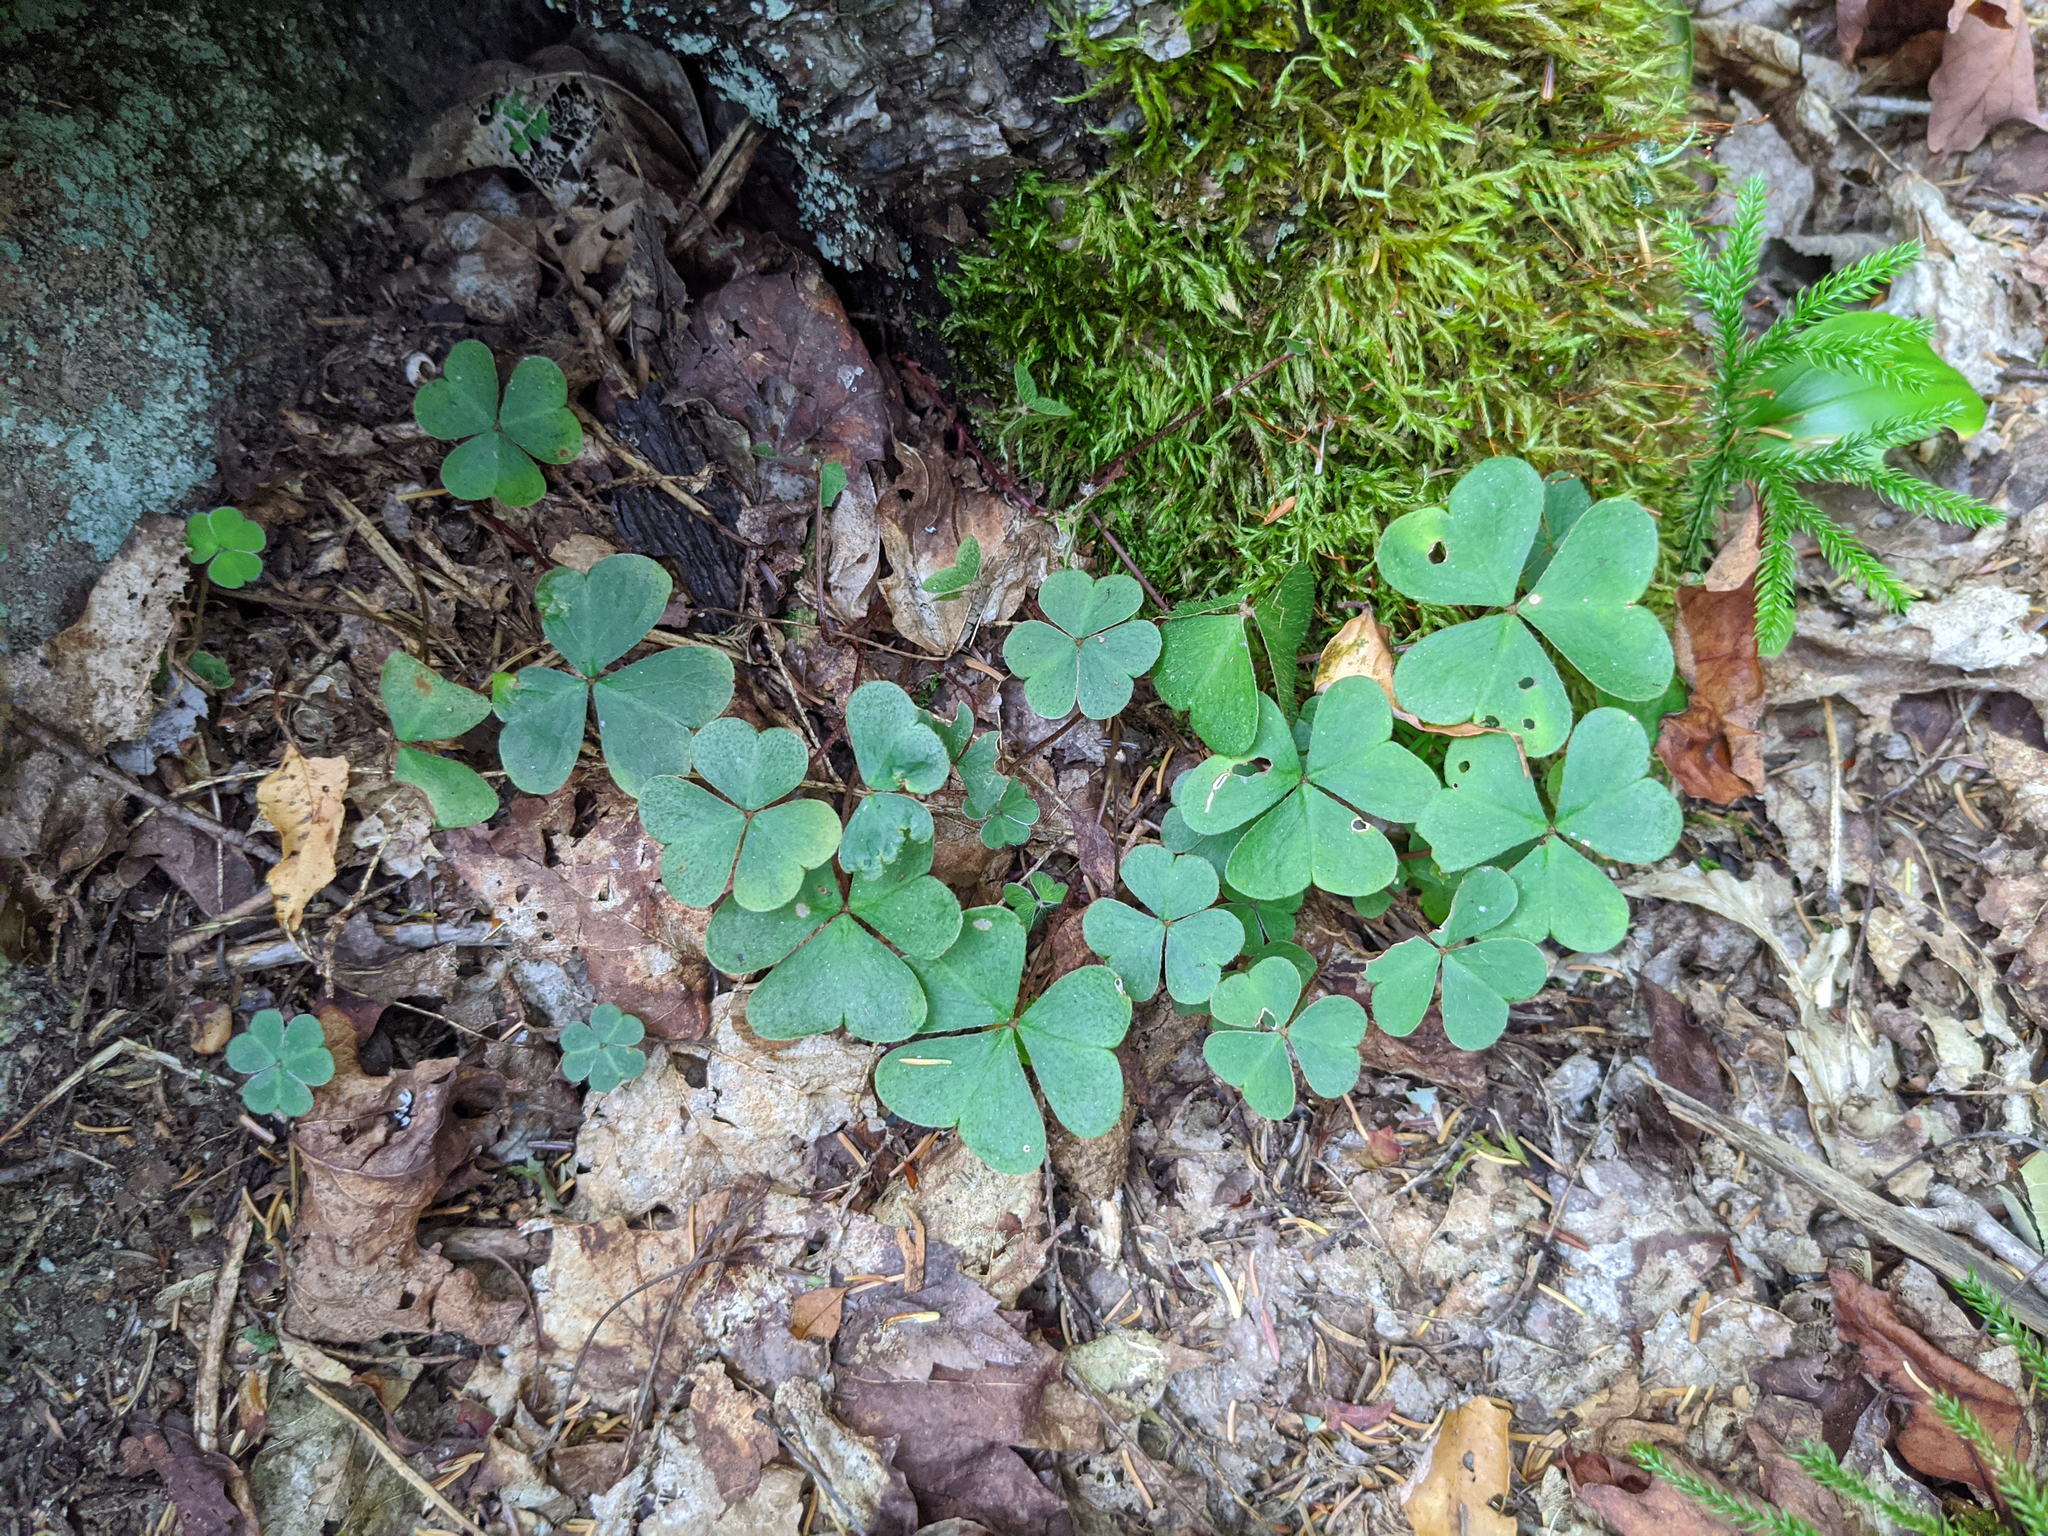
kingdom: Plantae
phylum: Tracheophyta
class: Magnoliopsida
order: Oxalidales
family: Oxalidaceae
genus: Oxalis
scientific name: Oxalis montana
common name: American wood-sorrel
